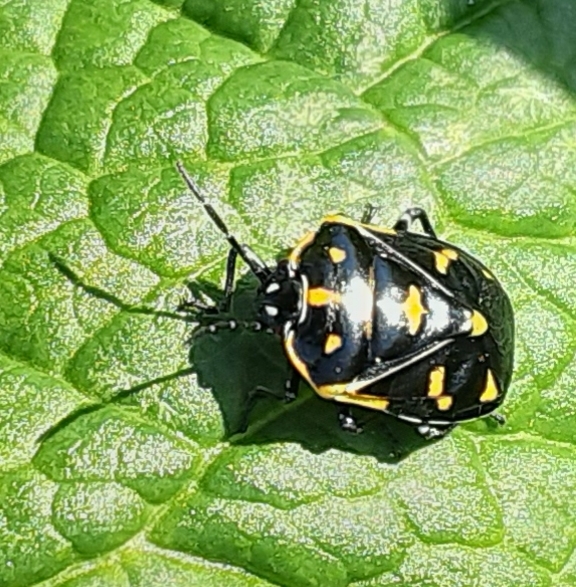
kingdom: Animalia
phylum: Arthropoda
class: Insecta
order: Hemiptera
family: Pentatomidae
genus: Murgantia
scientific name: Murgantia histrionica
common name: Harlequin bug
